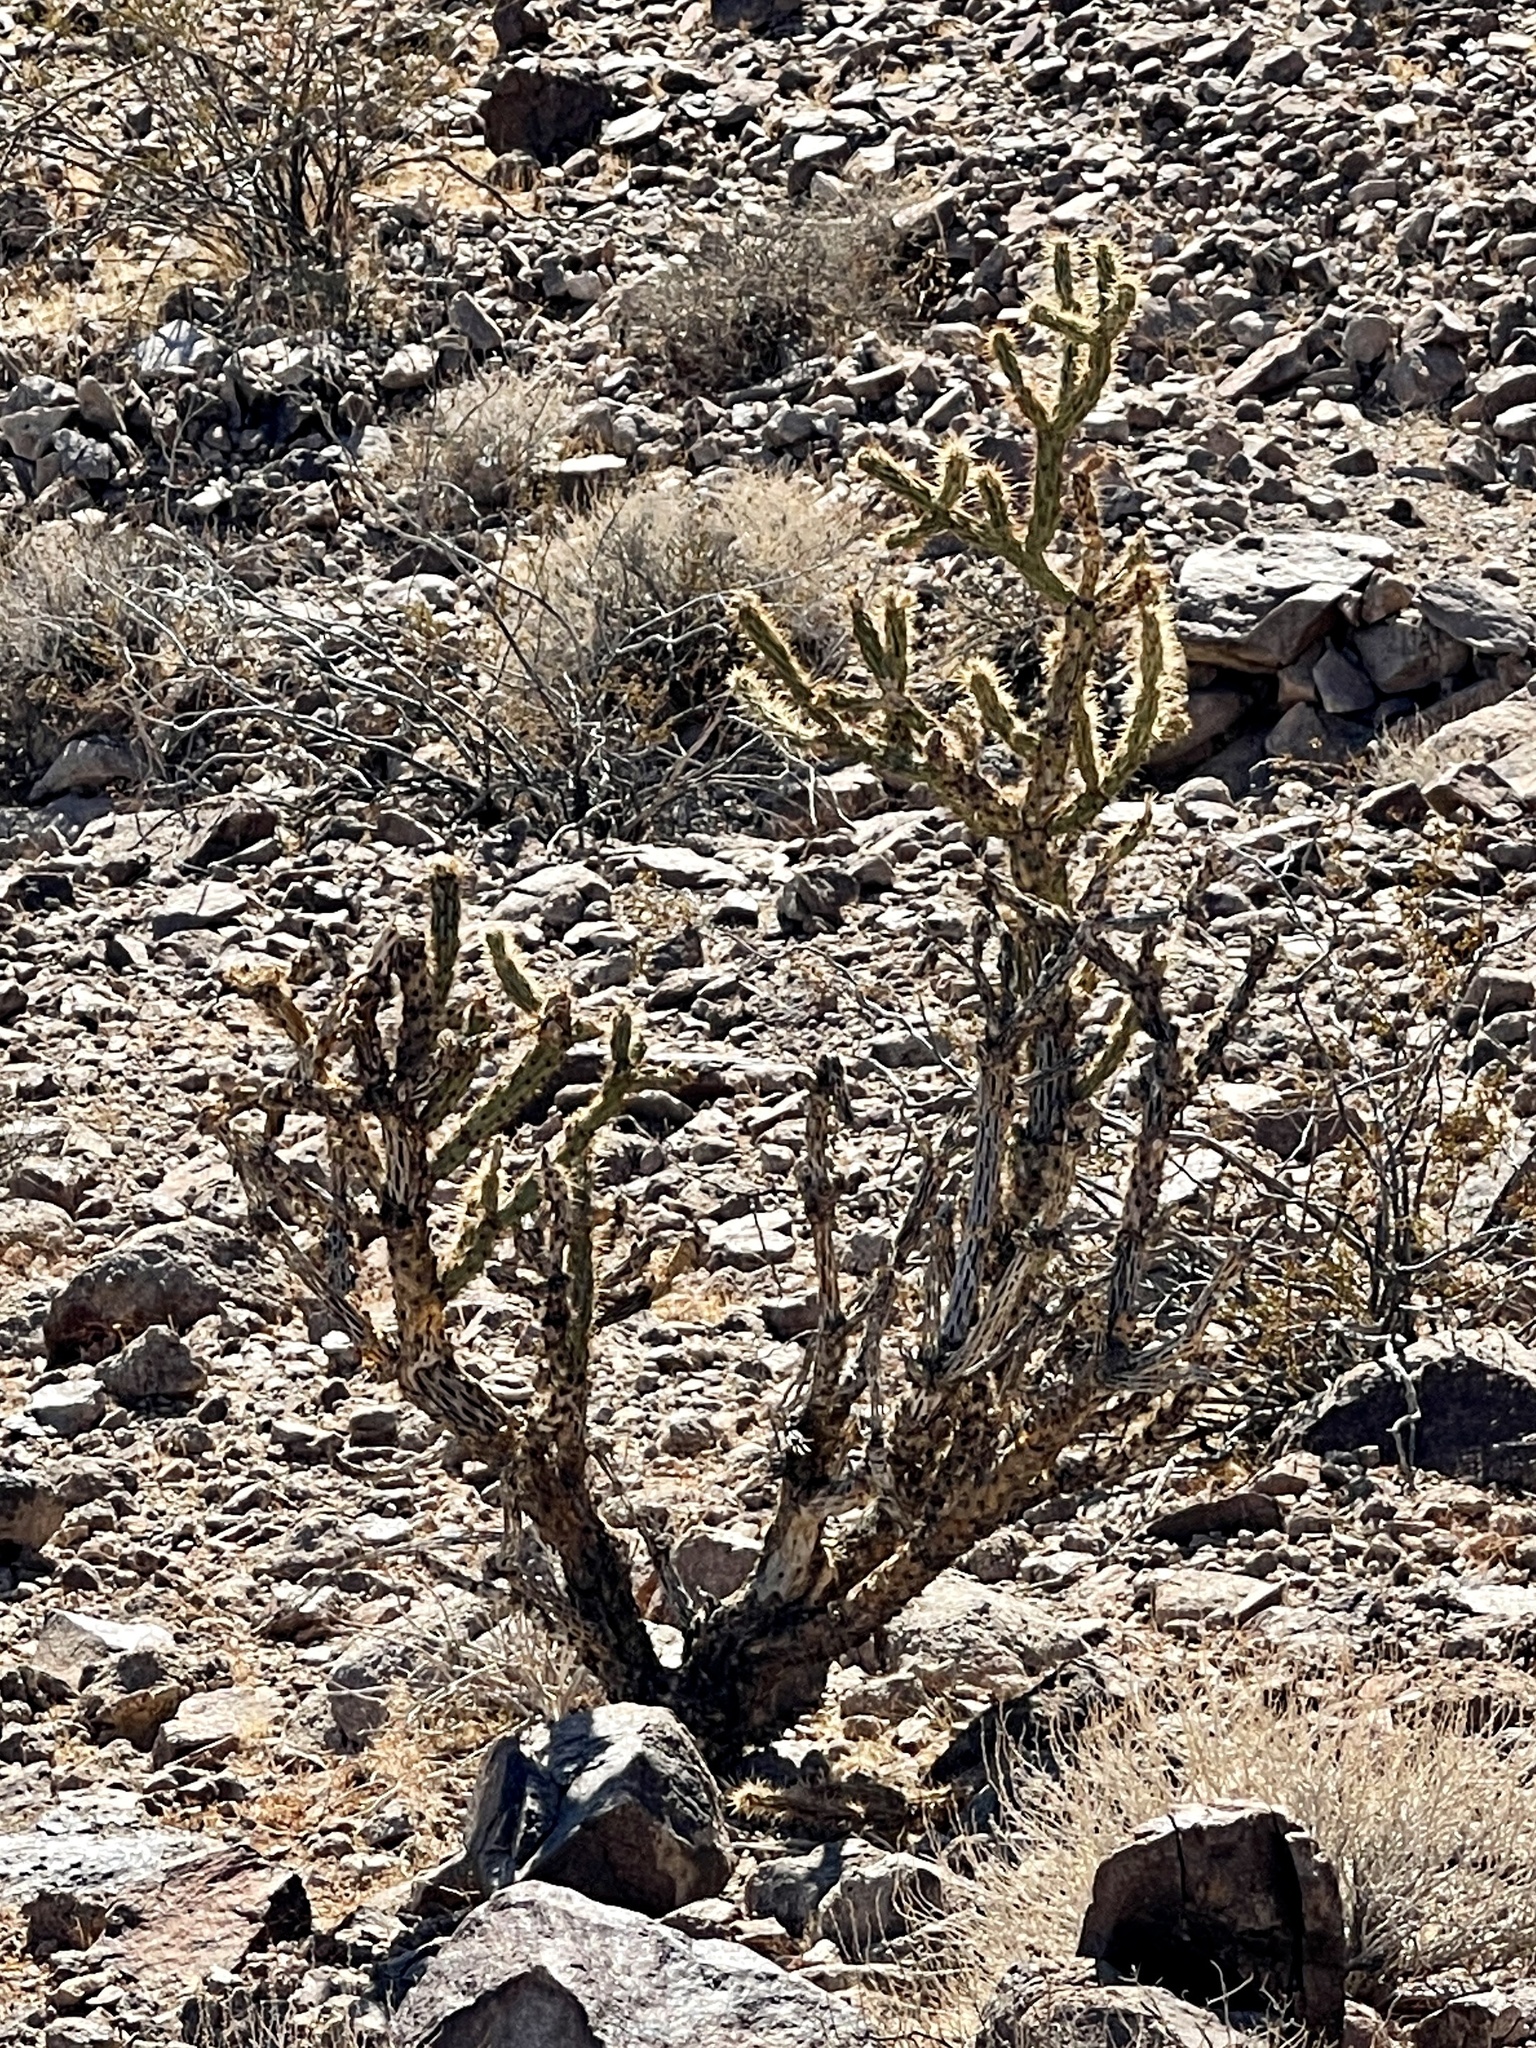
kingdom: Plantae
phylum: Tracheophyta
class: Magnoliopsida
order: Caryophyllales
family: Cactaceae
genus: Cylindropuntia
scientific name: Cylindropuntia acanthocarpa
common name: Buckhorn cholla
